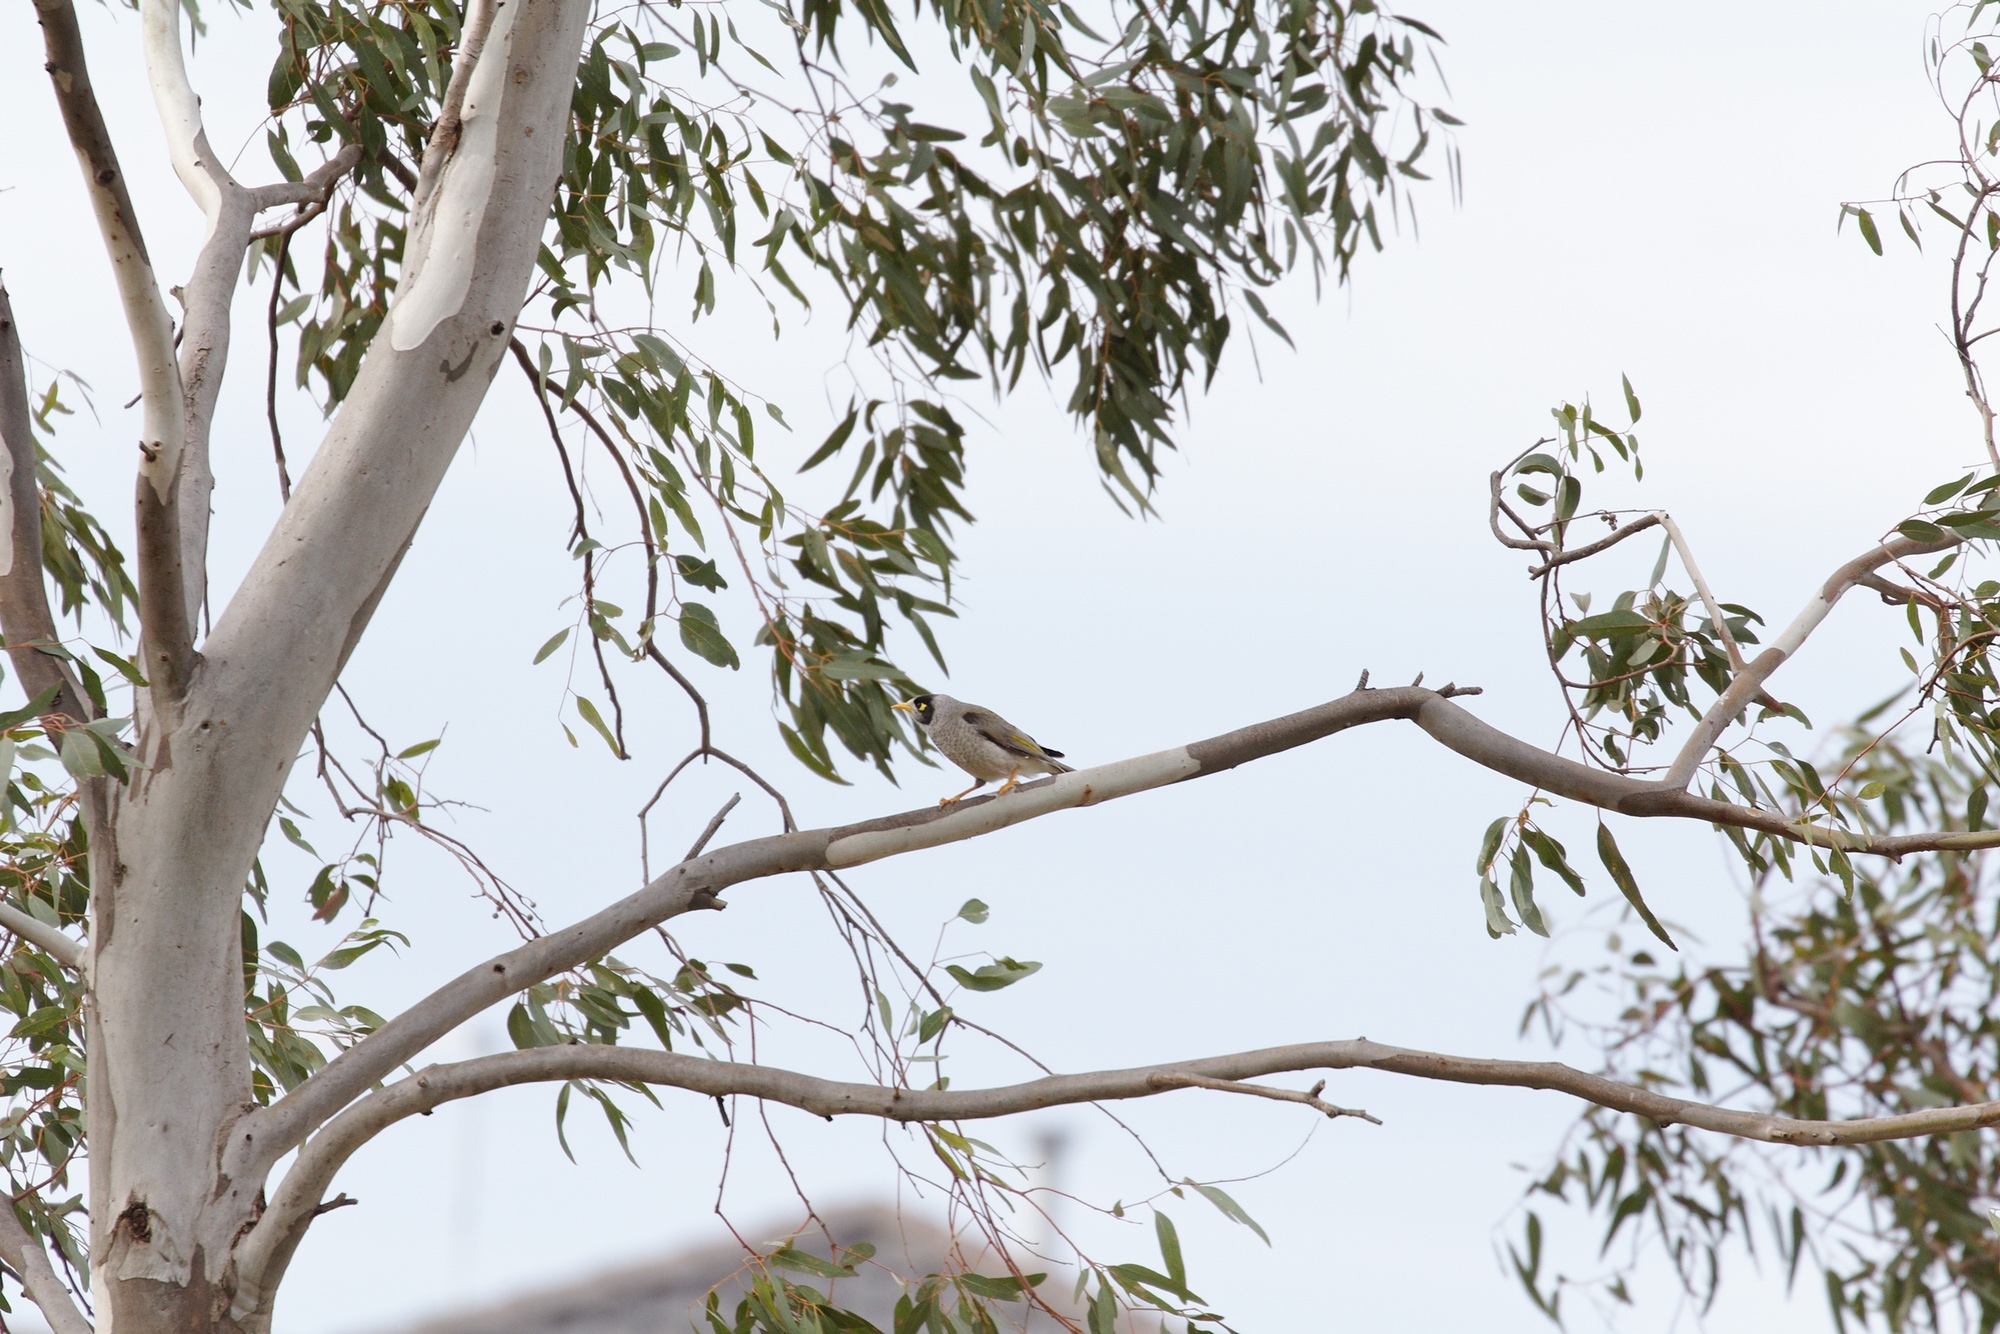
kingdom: Animalia
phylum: Chordata
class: Aves
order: Passeriformes
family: Meliphagidae
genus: Manorina
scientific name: Manorina melanocephala
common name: Noisy miner
